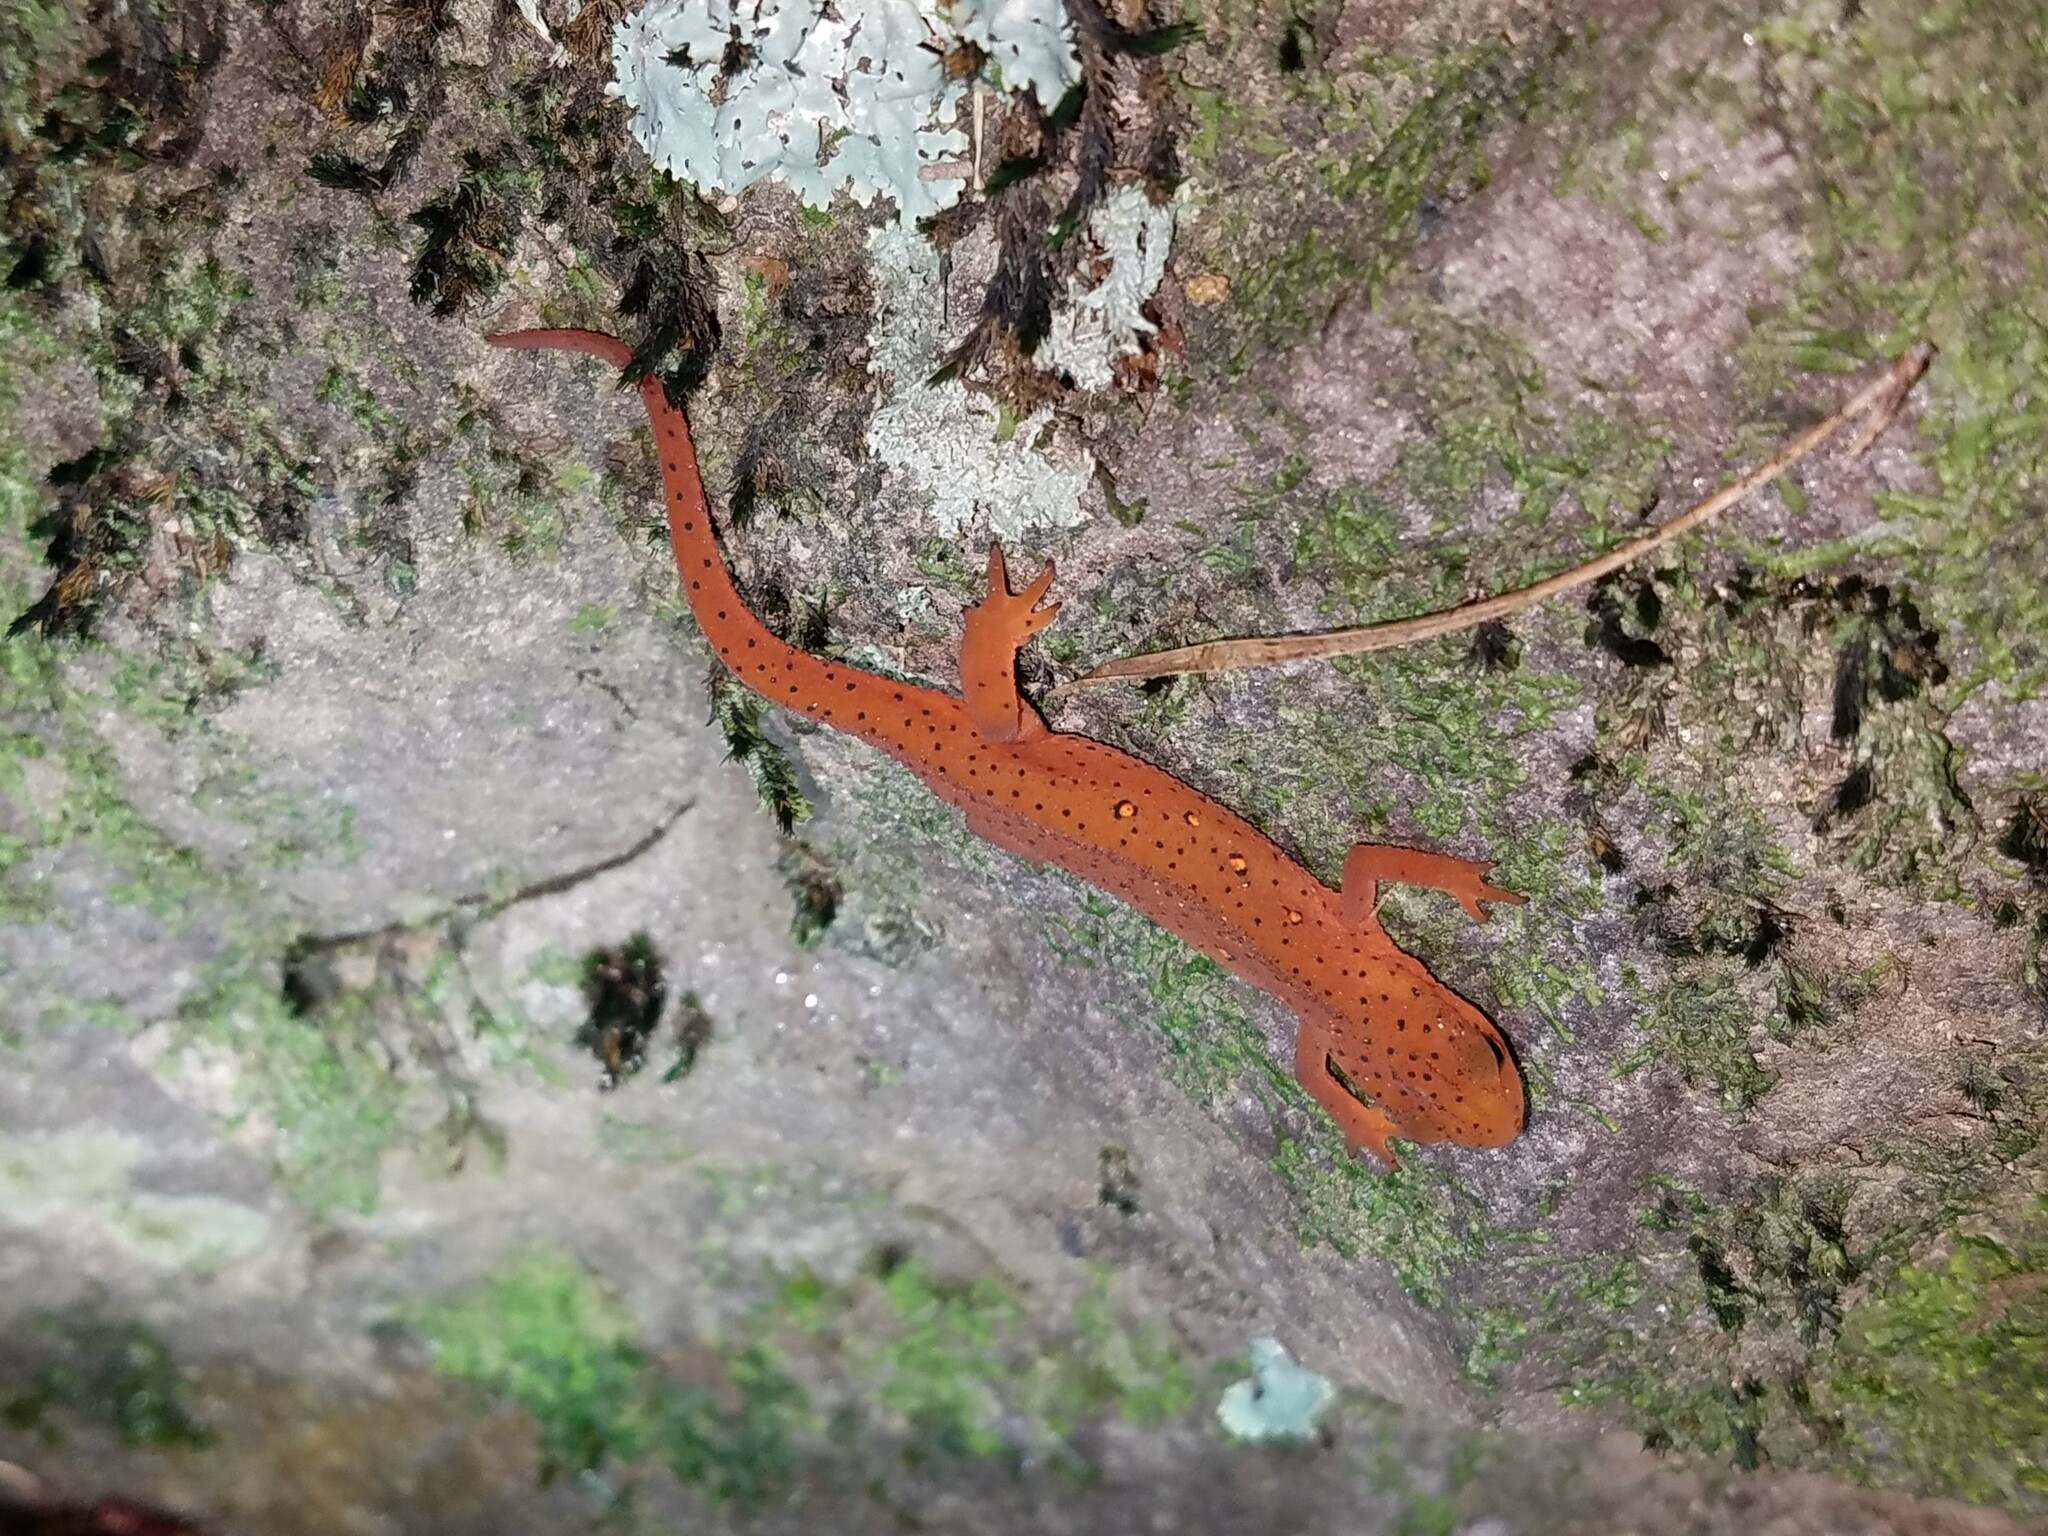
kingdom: Animalia
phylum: Chordata
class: Amphibia
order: Caudata
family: Salamandridae
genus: Notophthalmus
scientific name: Notophthalmus viridescens
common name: Eastern newt
